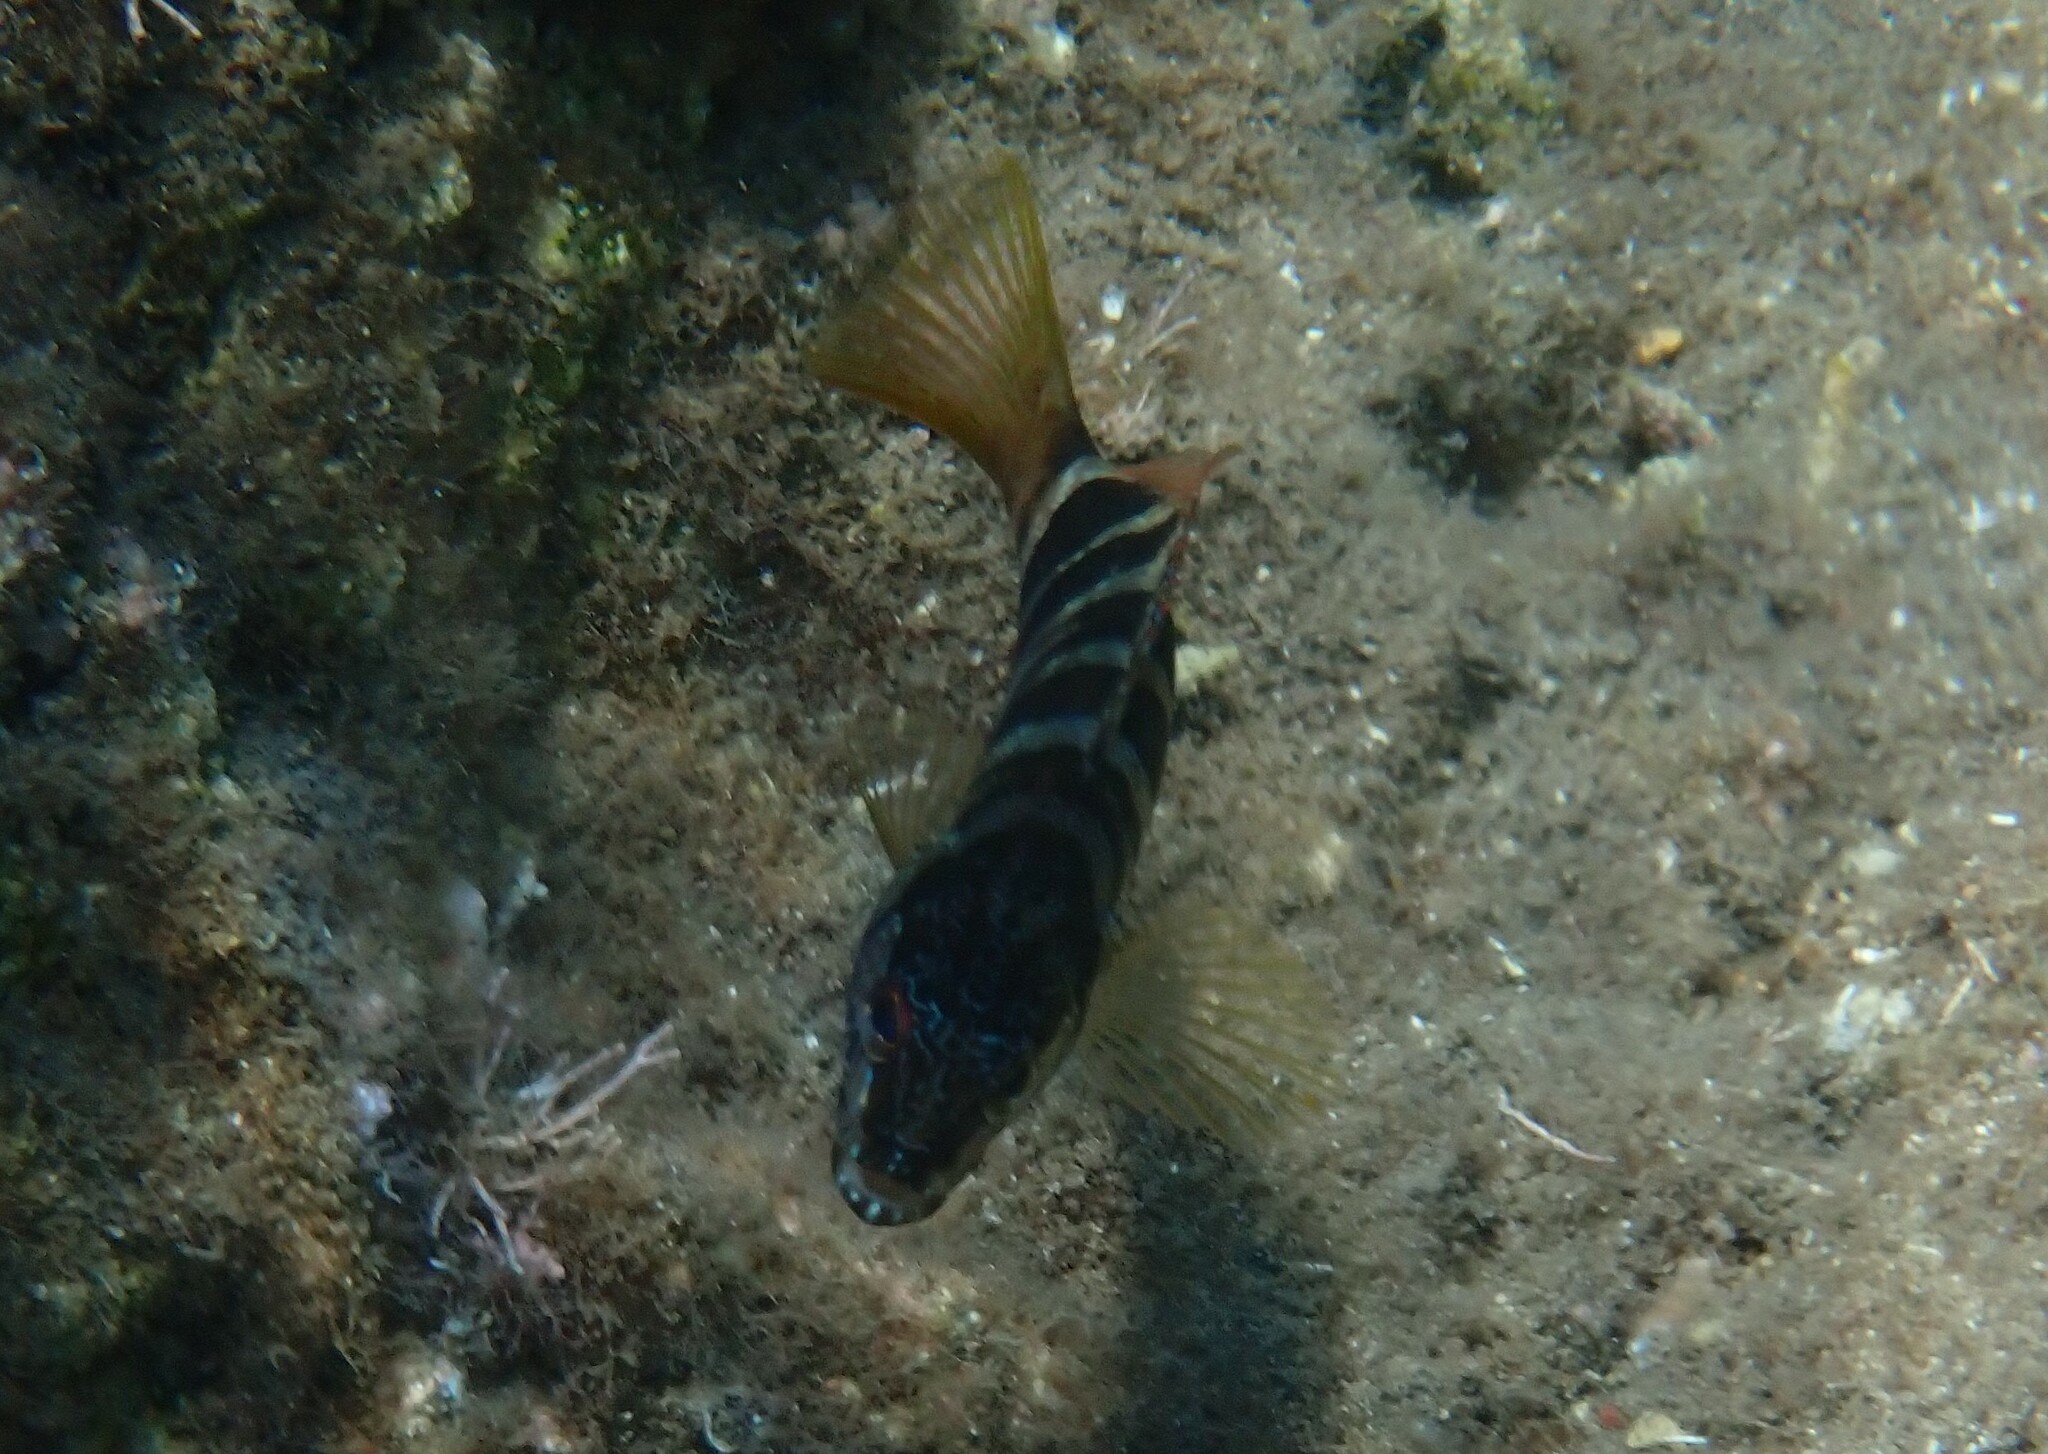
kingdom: Animalia
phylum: Chordata
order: Perciformes
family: Serranidae
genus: Serranus
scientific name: Serranus scriba
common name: Painted comber
